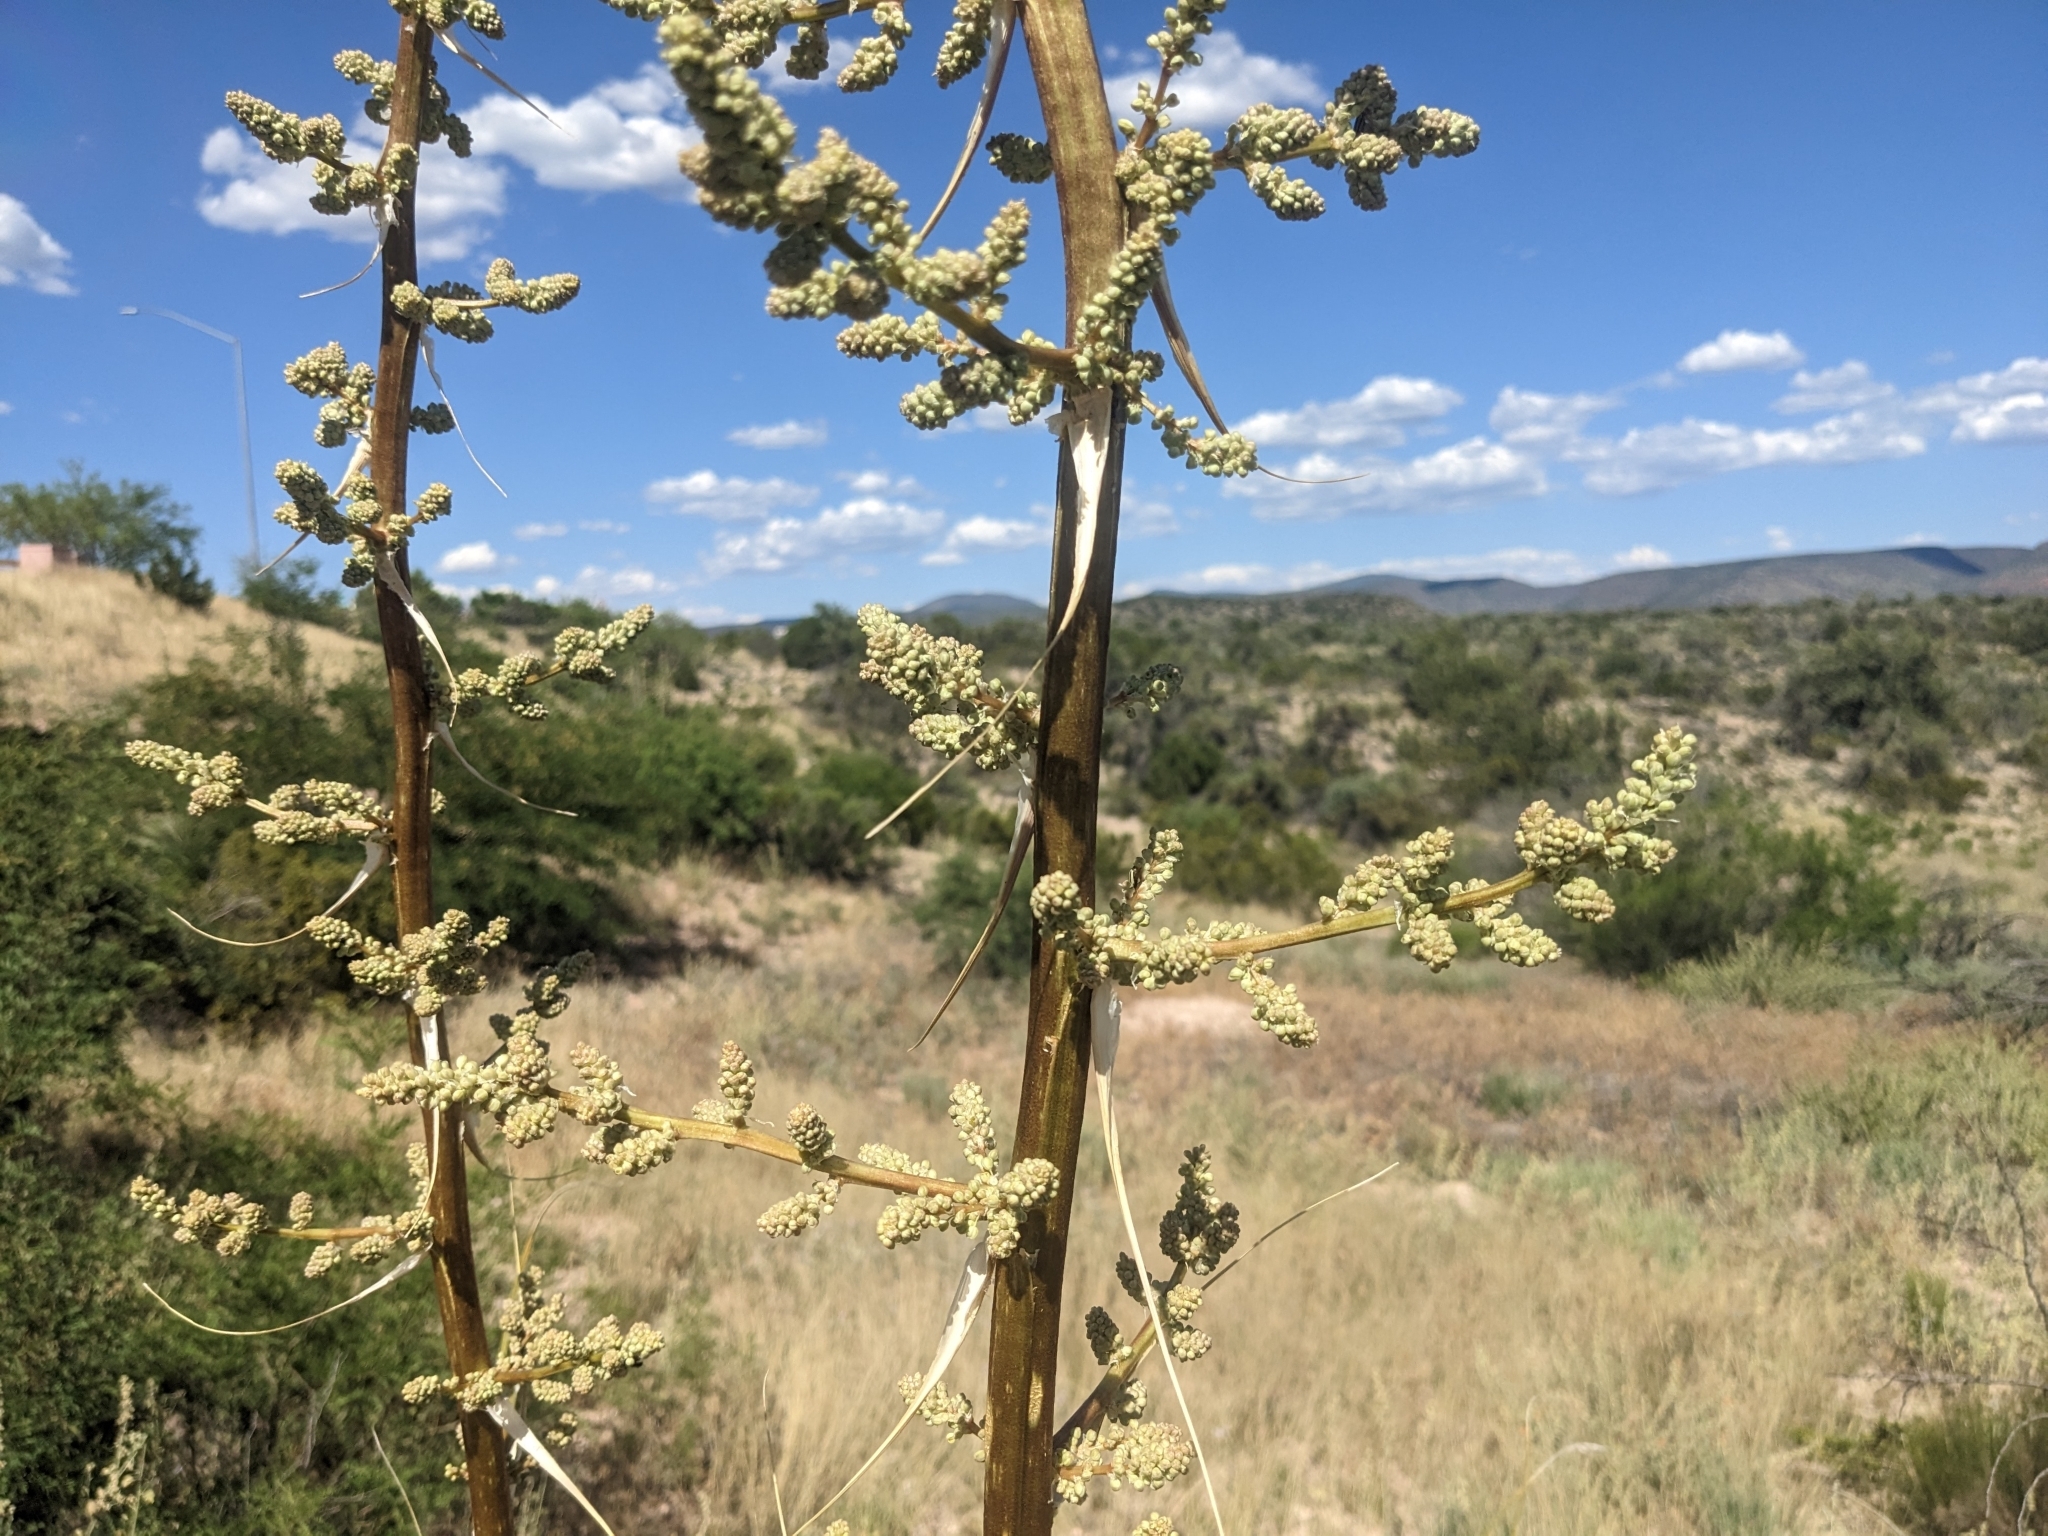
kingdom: Plantae
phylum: Tracheophyta
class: Liliopsida
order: Asparagales
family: Asparagaceae
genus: Nolina
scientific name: Nolina microcarpa
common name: Bear-grass
